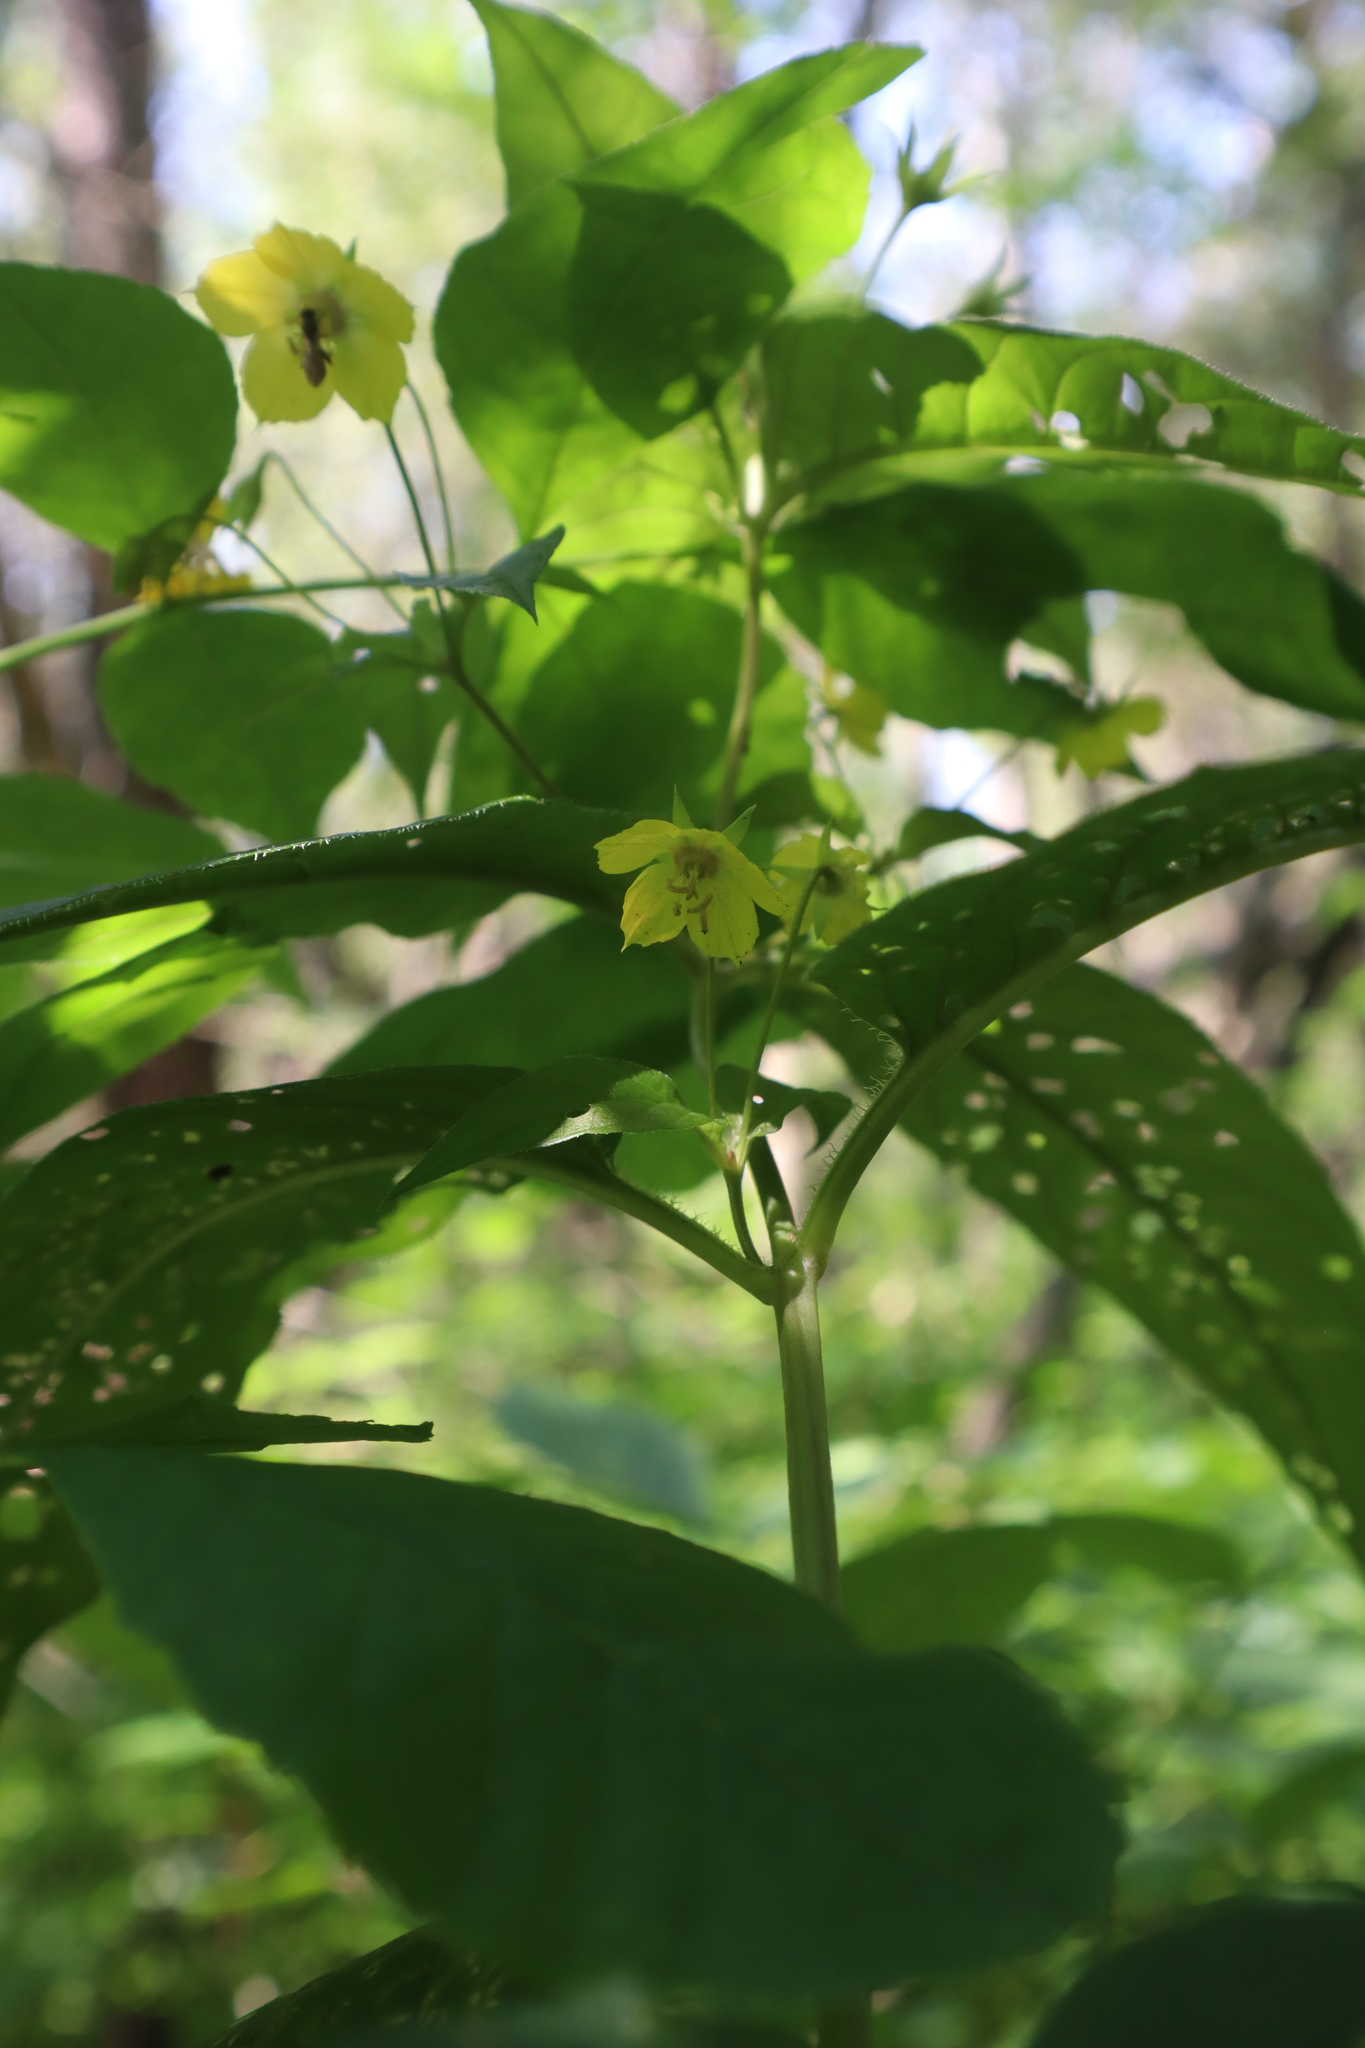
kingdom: Plantae
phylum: Tracheophyta
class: Magnoliopsida
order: Ericales
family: Primulaceae
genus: Lysimachia
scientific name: Lysimachia ciliata
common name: Fringed loosestrife
